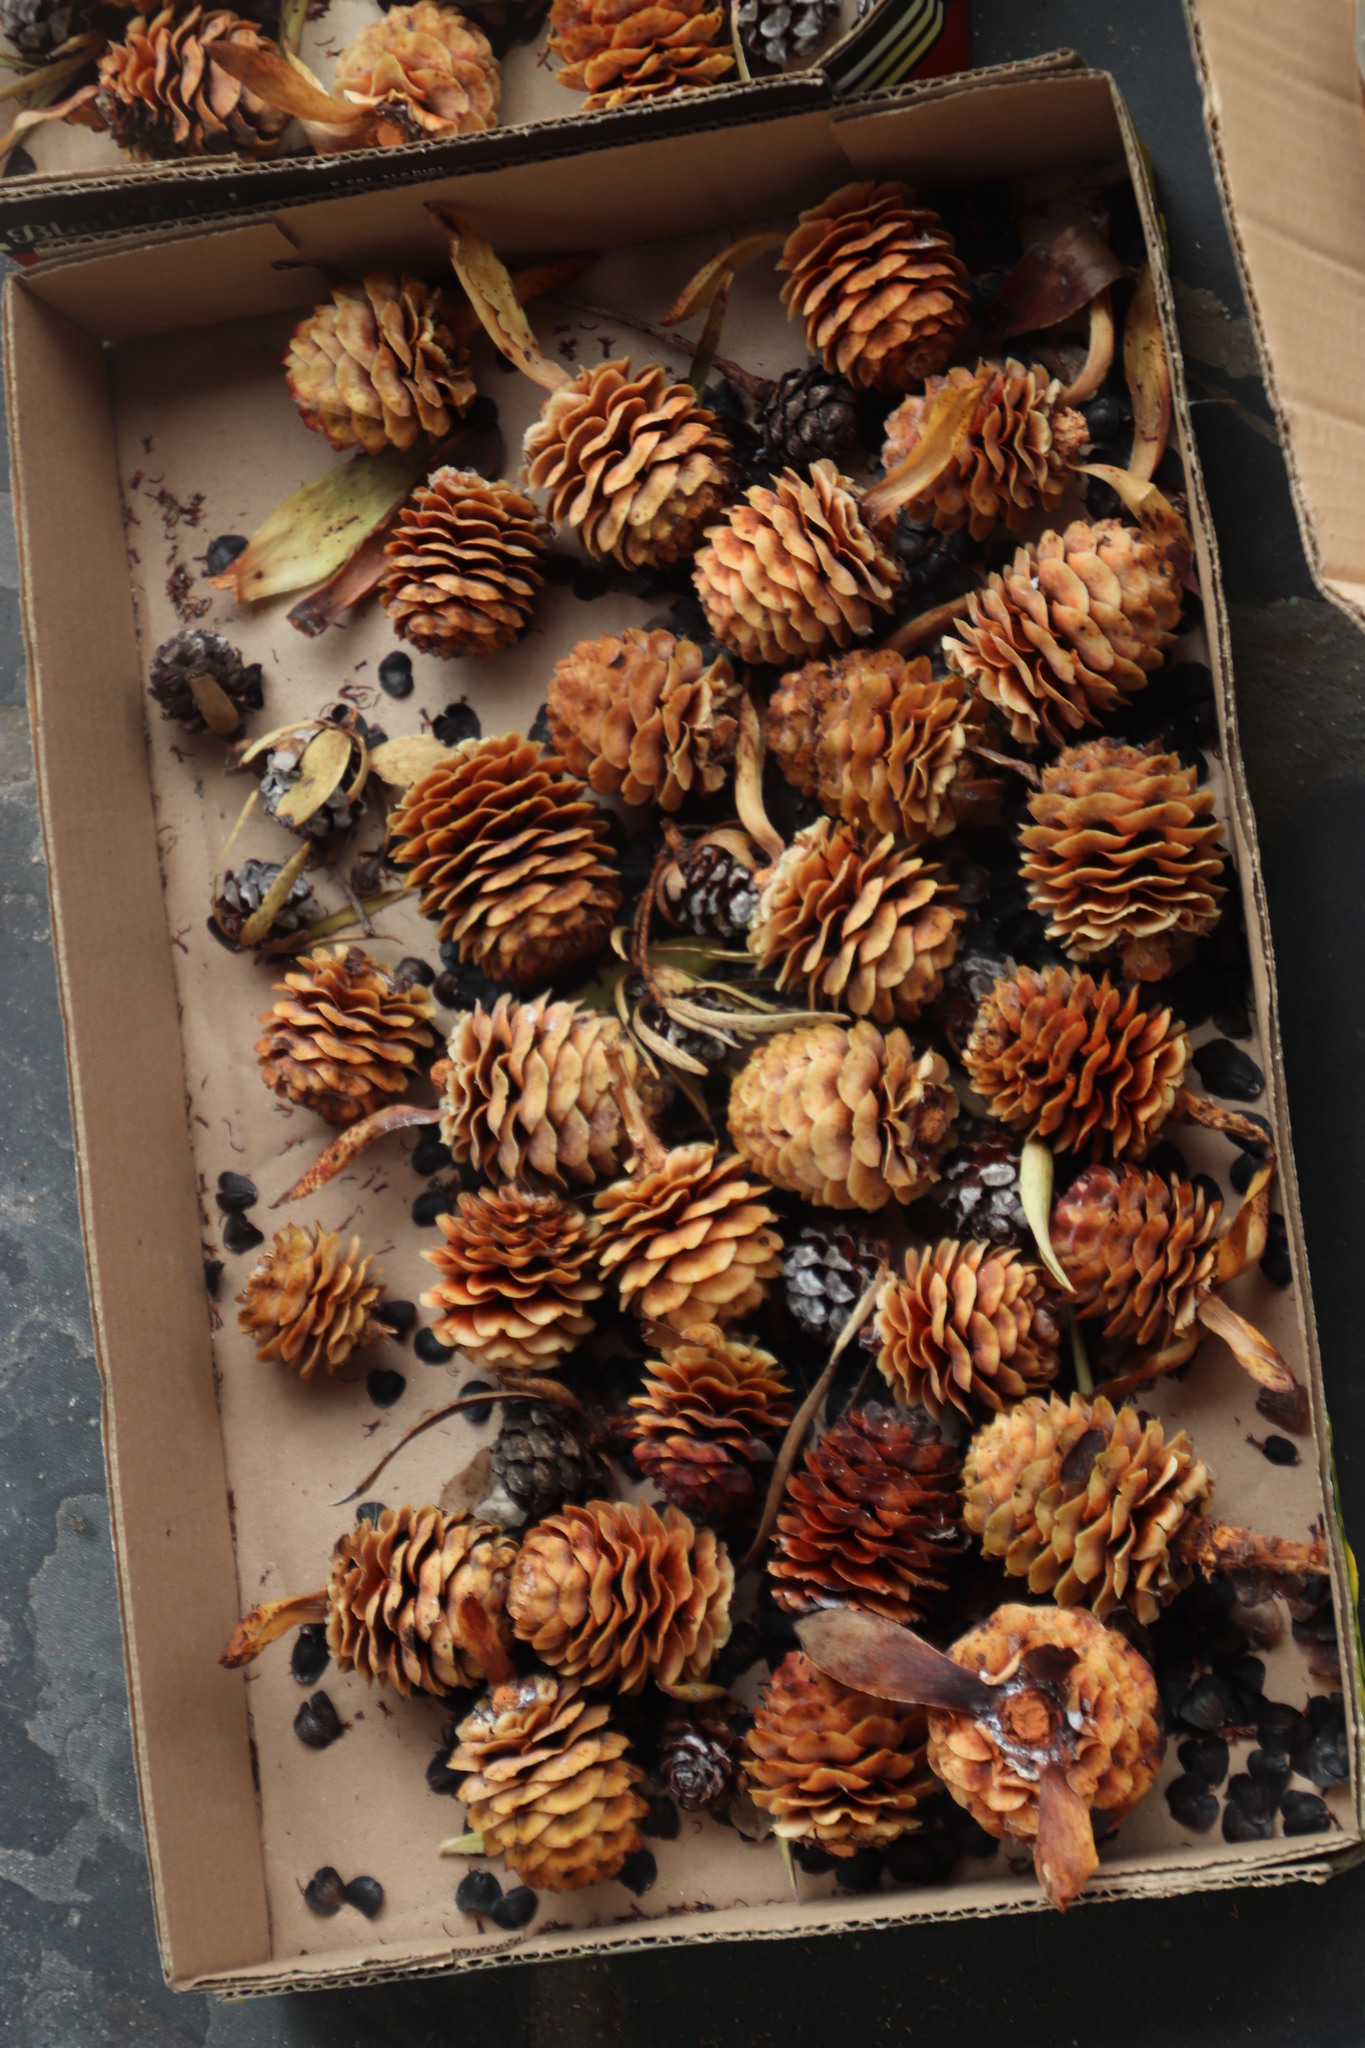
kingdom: Plantae
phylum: Tracheophyta
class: Magnoliopsida
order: Proteales
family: Proteaceae
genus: Leucadendron
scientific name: Leucadendron laureolum
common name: Golden sunshinebush
